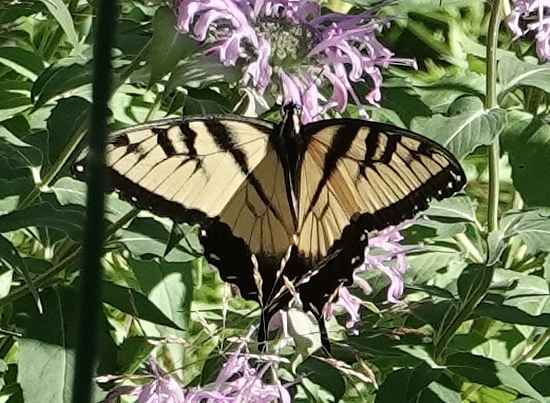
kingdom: Animalia
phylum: Arthropoda
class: Insecta
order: Lepidoptera
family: Papilionidae
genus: Papilio
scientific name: Papilio glaucus
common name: Tiger swallowtail
